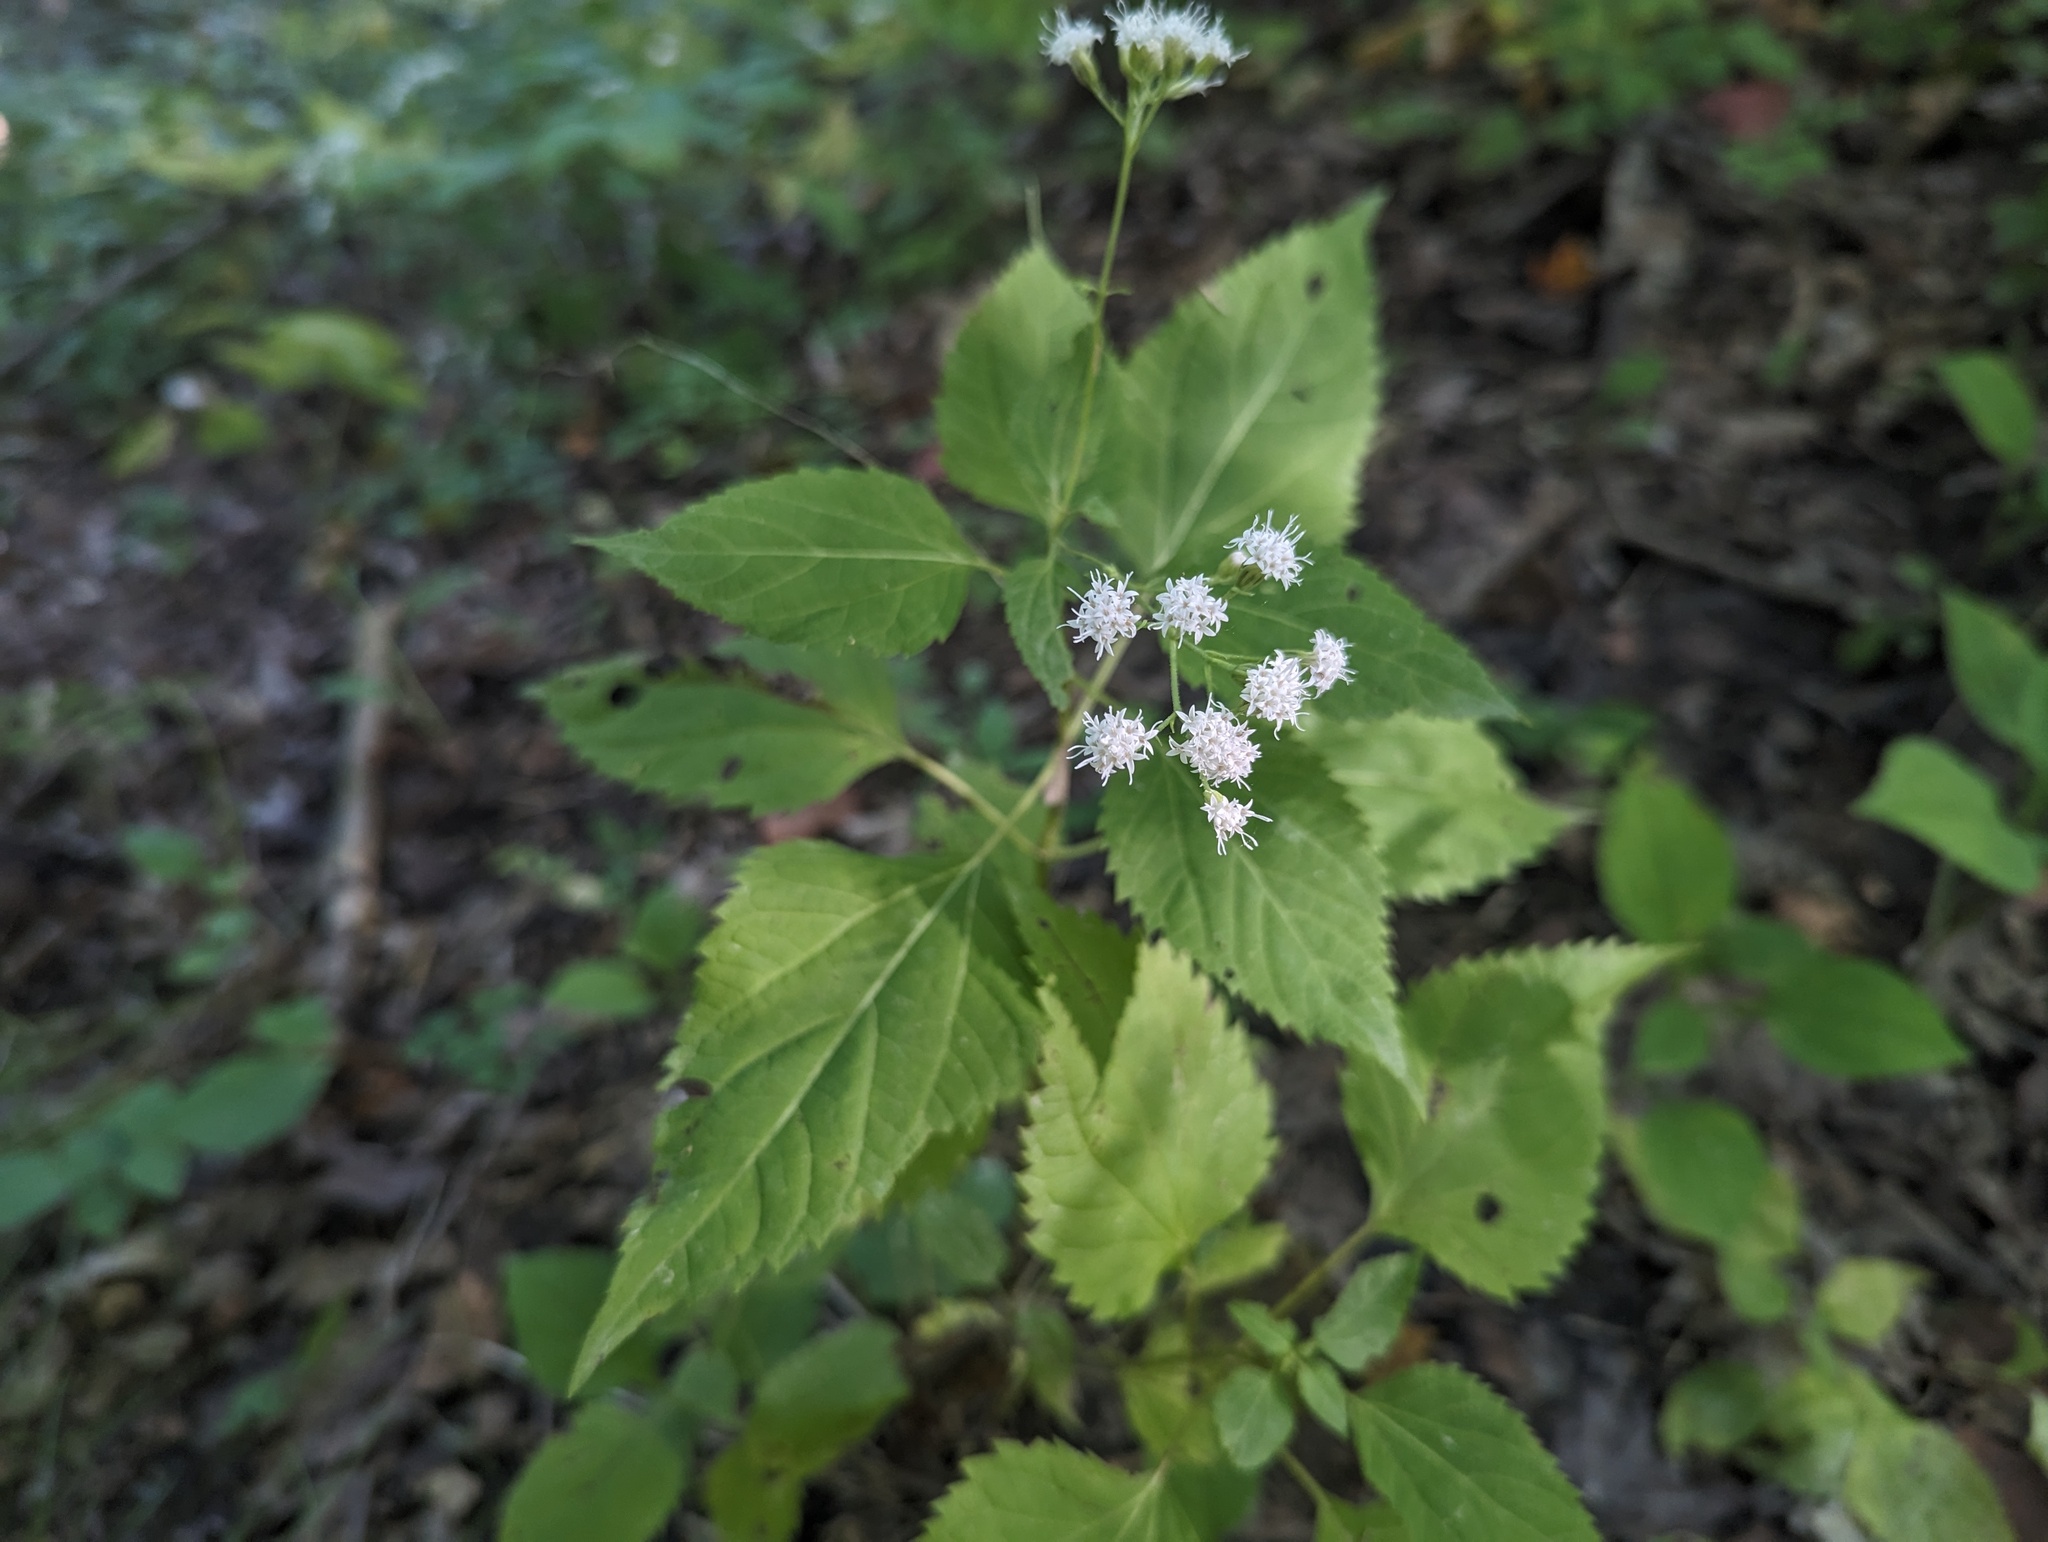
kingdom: Plantae
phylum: Tracheophyta
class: Magnoliopsida
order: Asterales
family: Asteraceae
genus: Ageratina
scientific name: Ageratina altissima
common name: White snakeroot
